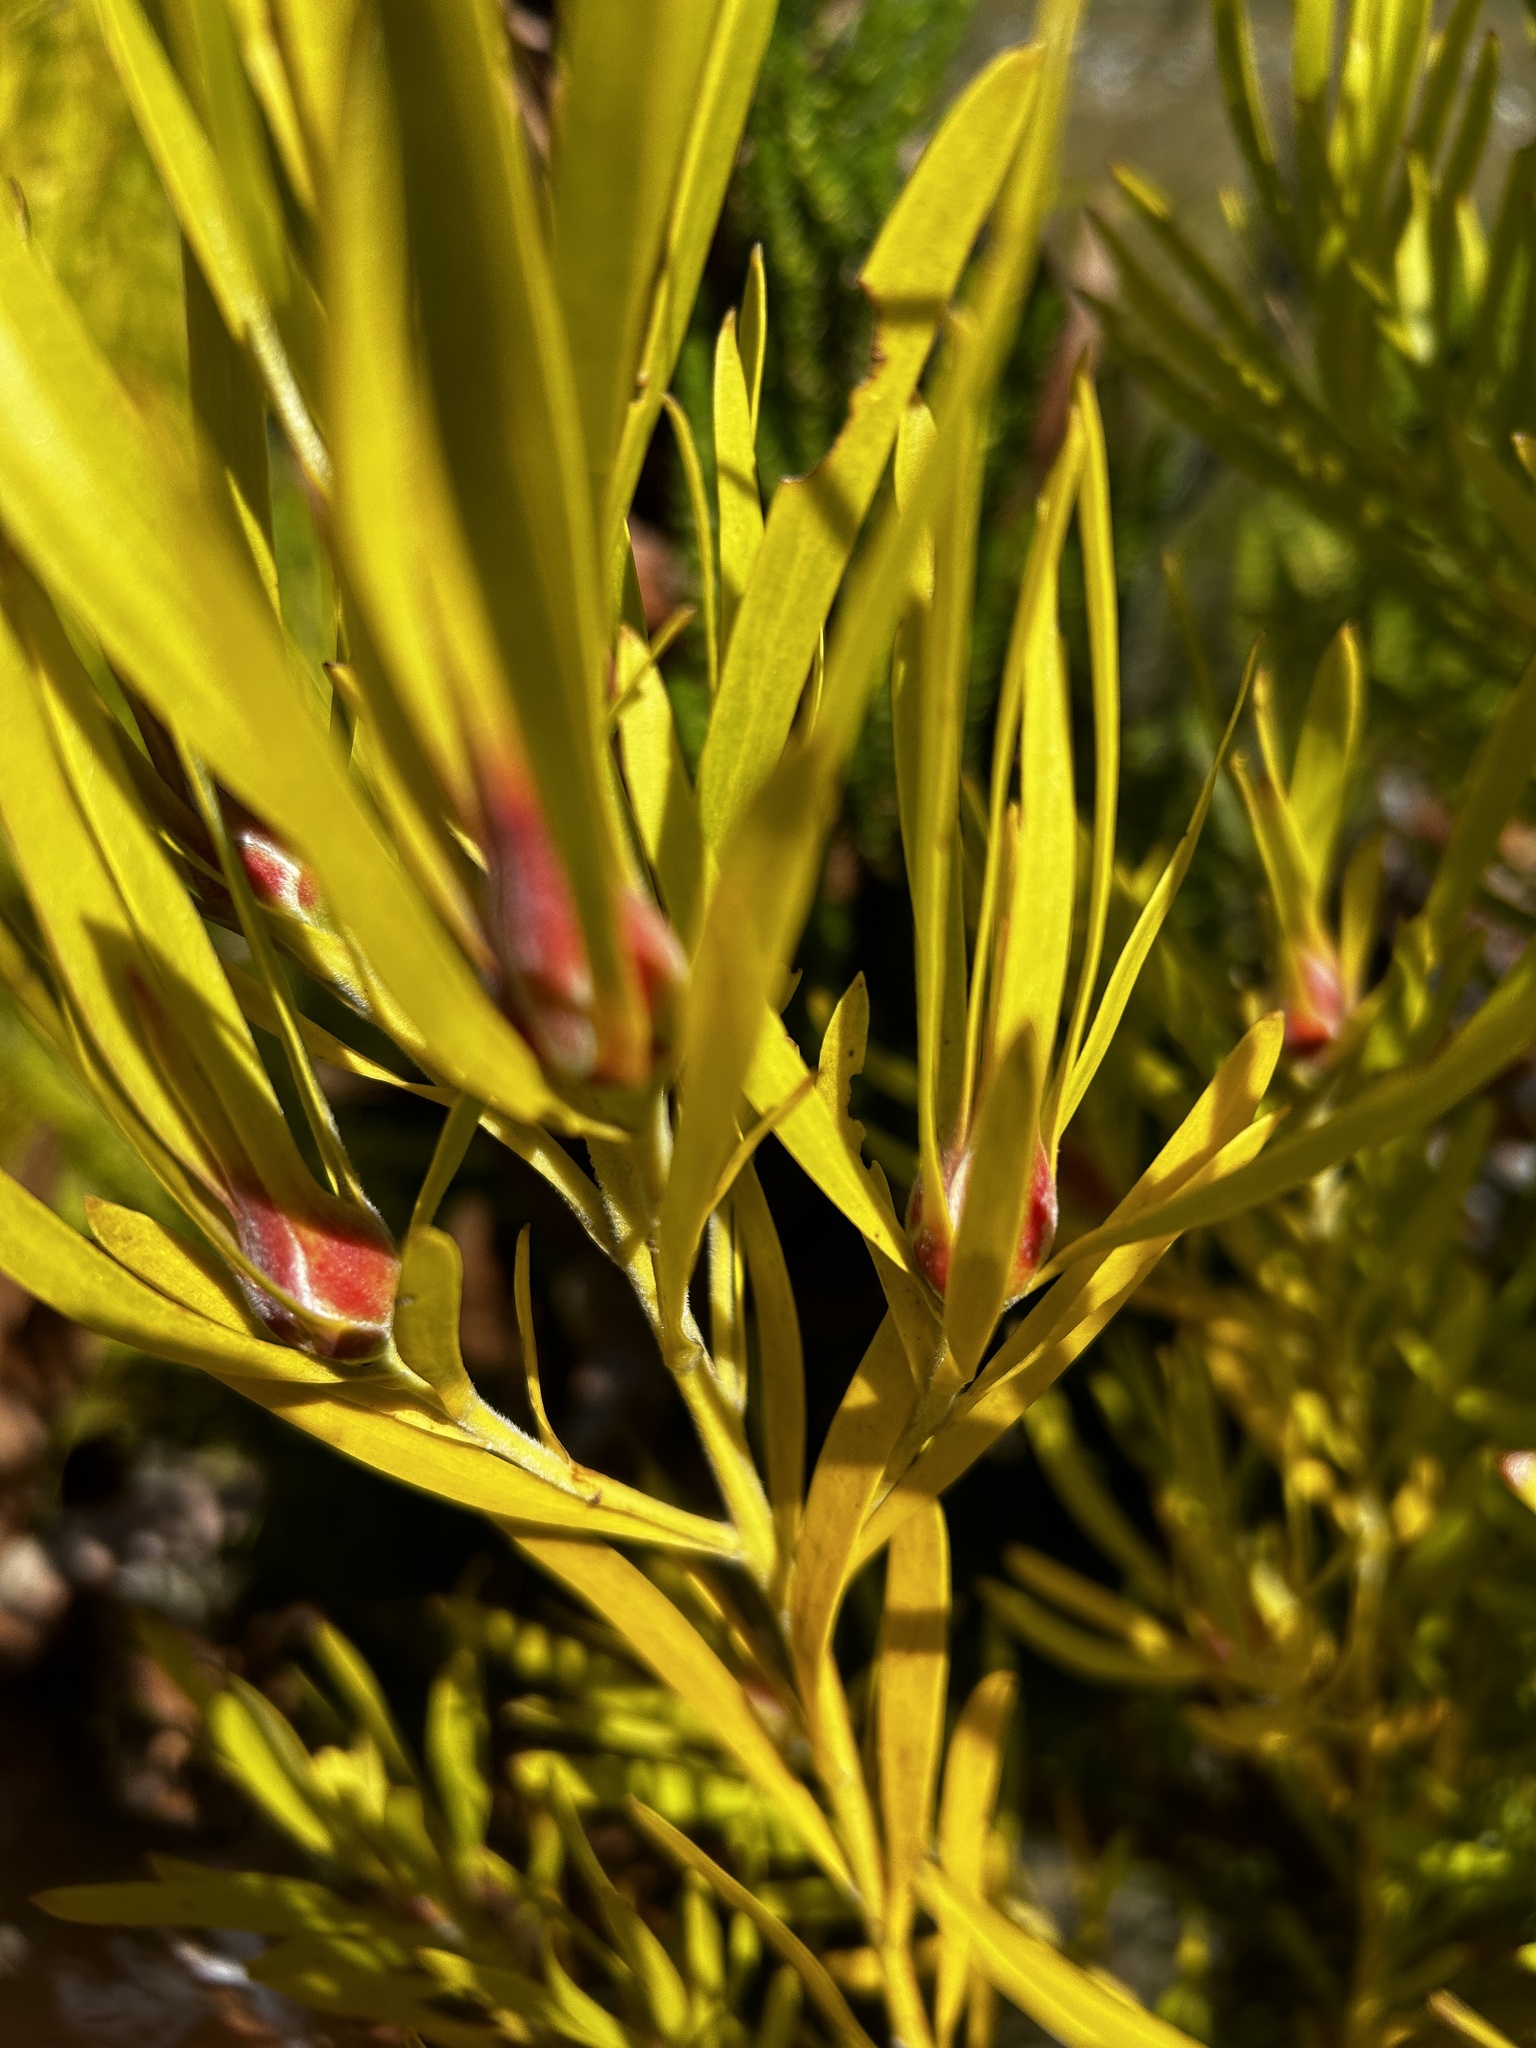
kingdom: Plantae
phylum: Tracheophyta
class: Magnoliopsida
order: Proteales
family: Proteaceae
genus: Leucadendron
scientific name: Leucadendron eucalyptifolium
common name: Gum-leaved conebush
